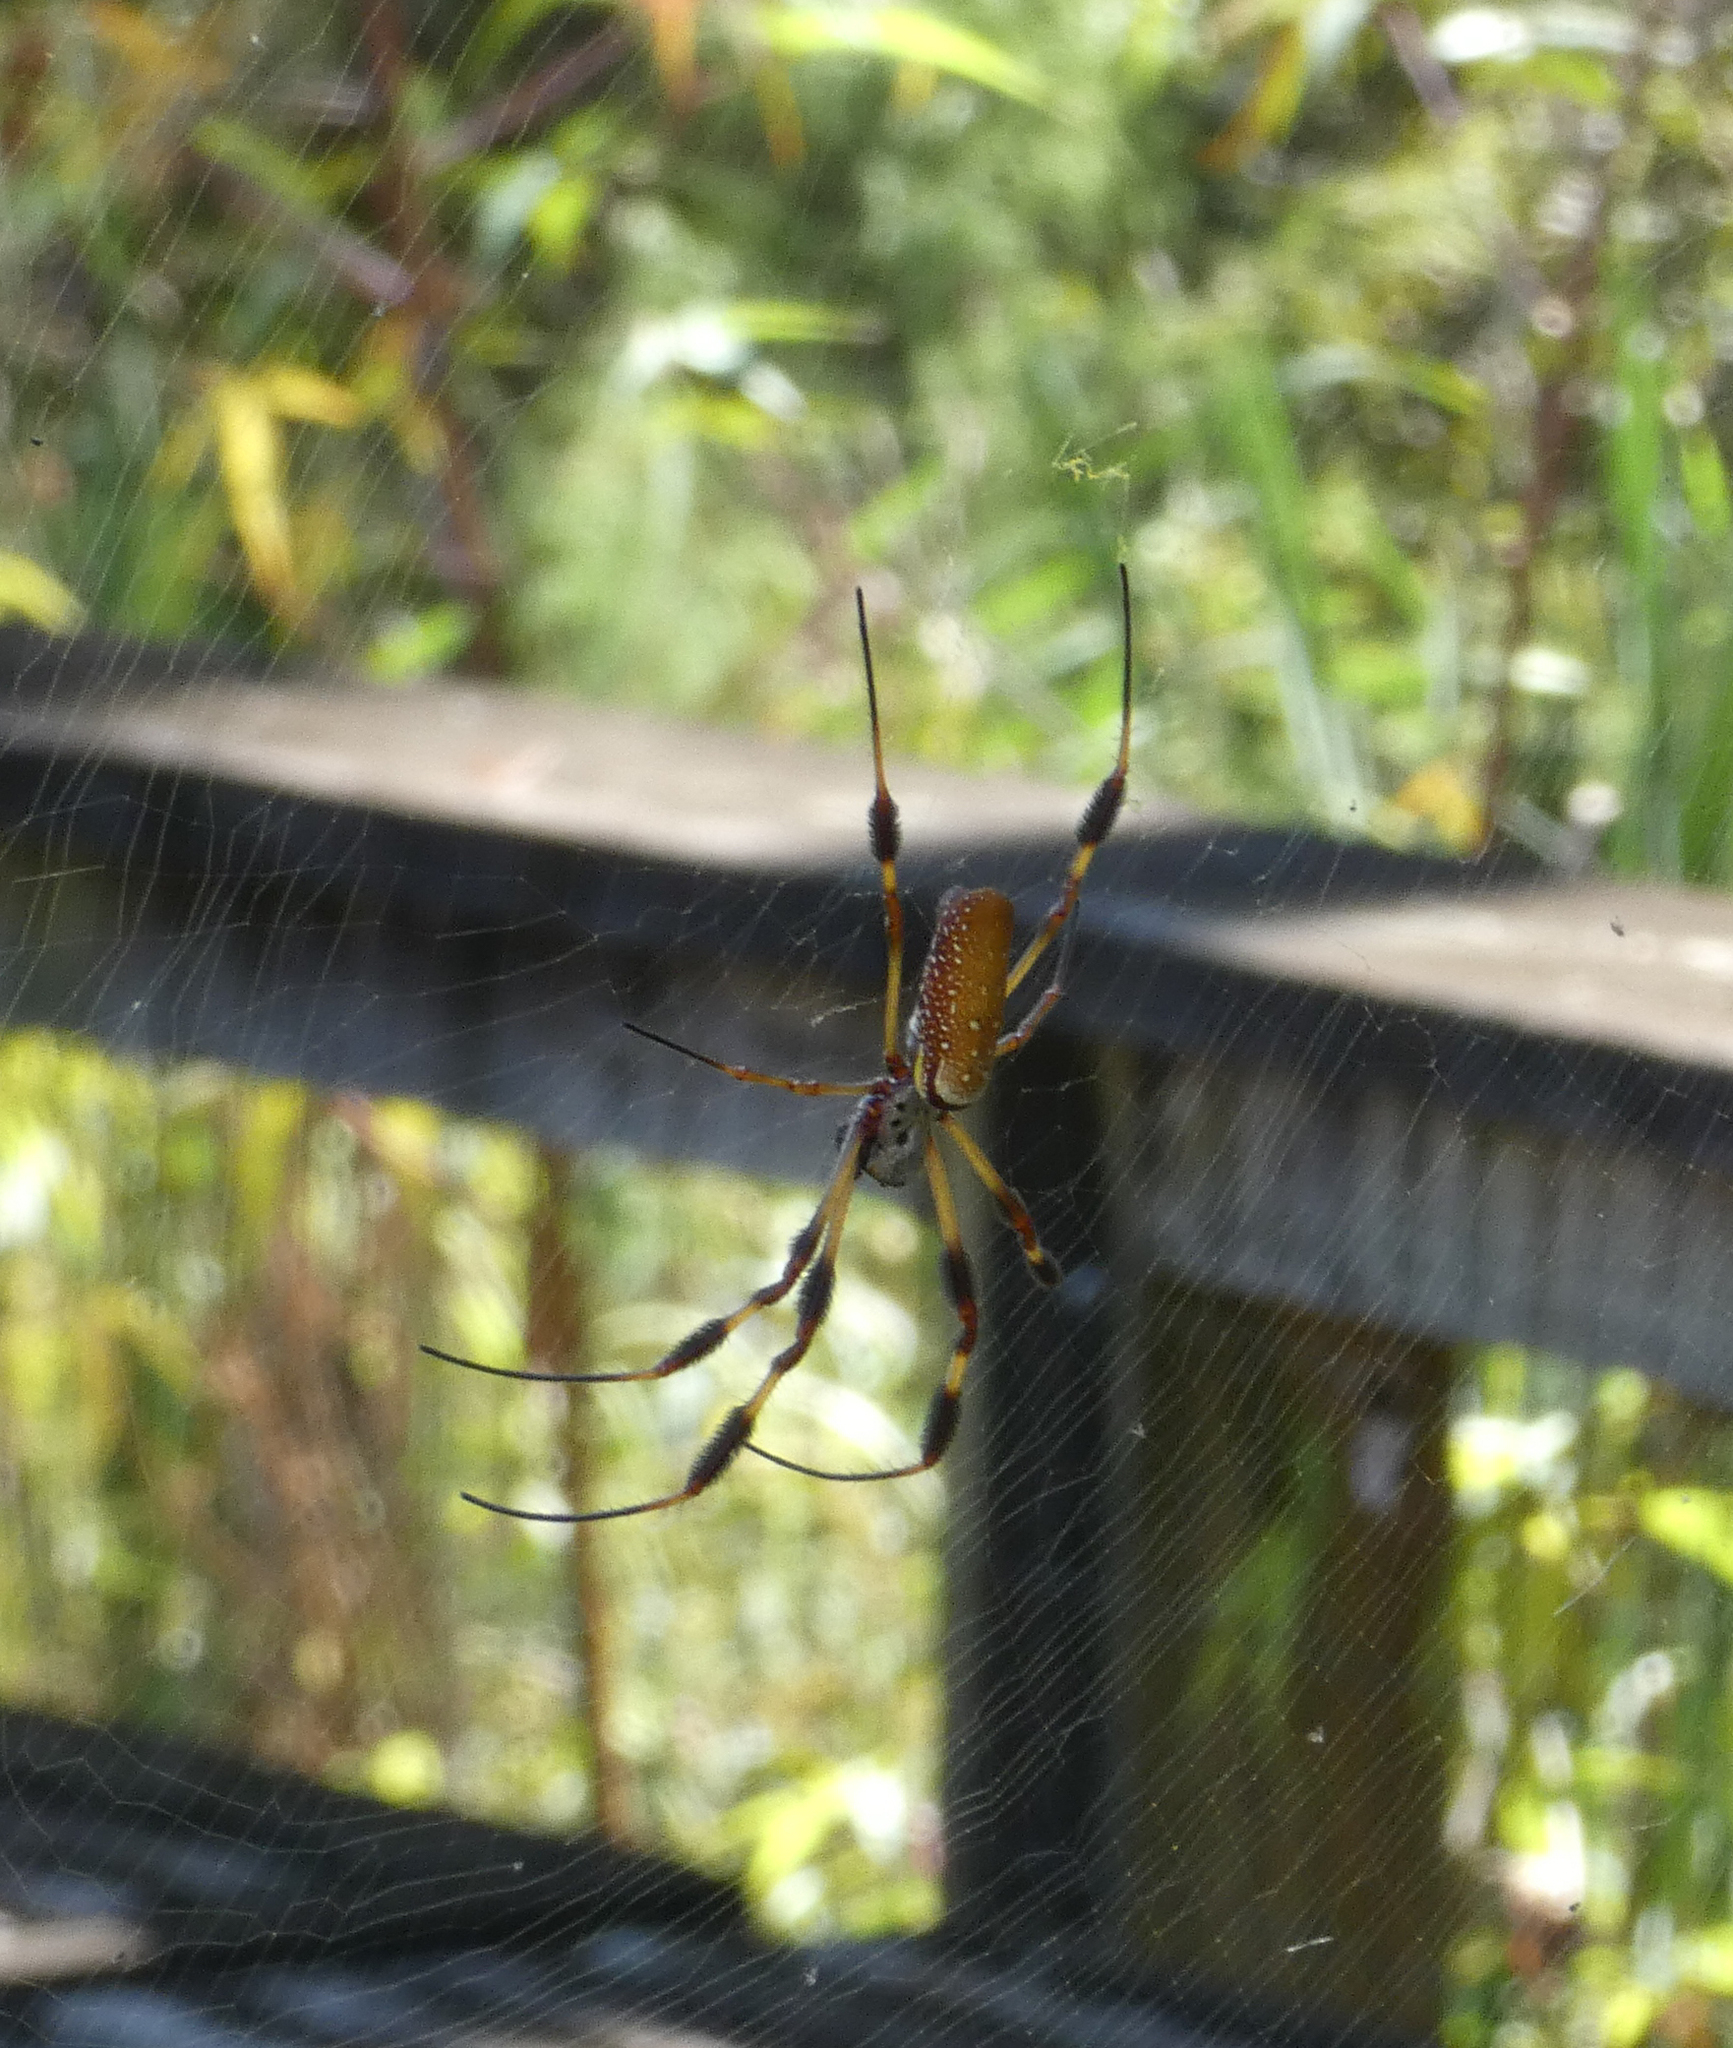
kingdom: Animalia
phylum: Arthropoda
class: Arachnida
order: Araneae
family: Araneidae
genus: Trichonephila
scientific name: Trichonephila clavipes
